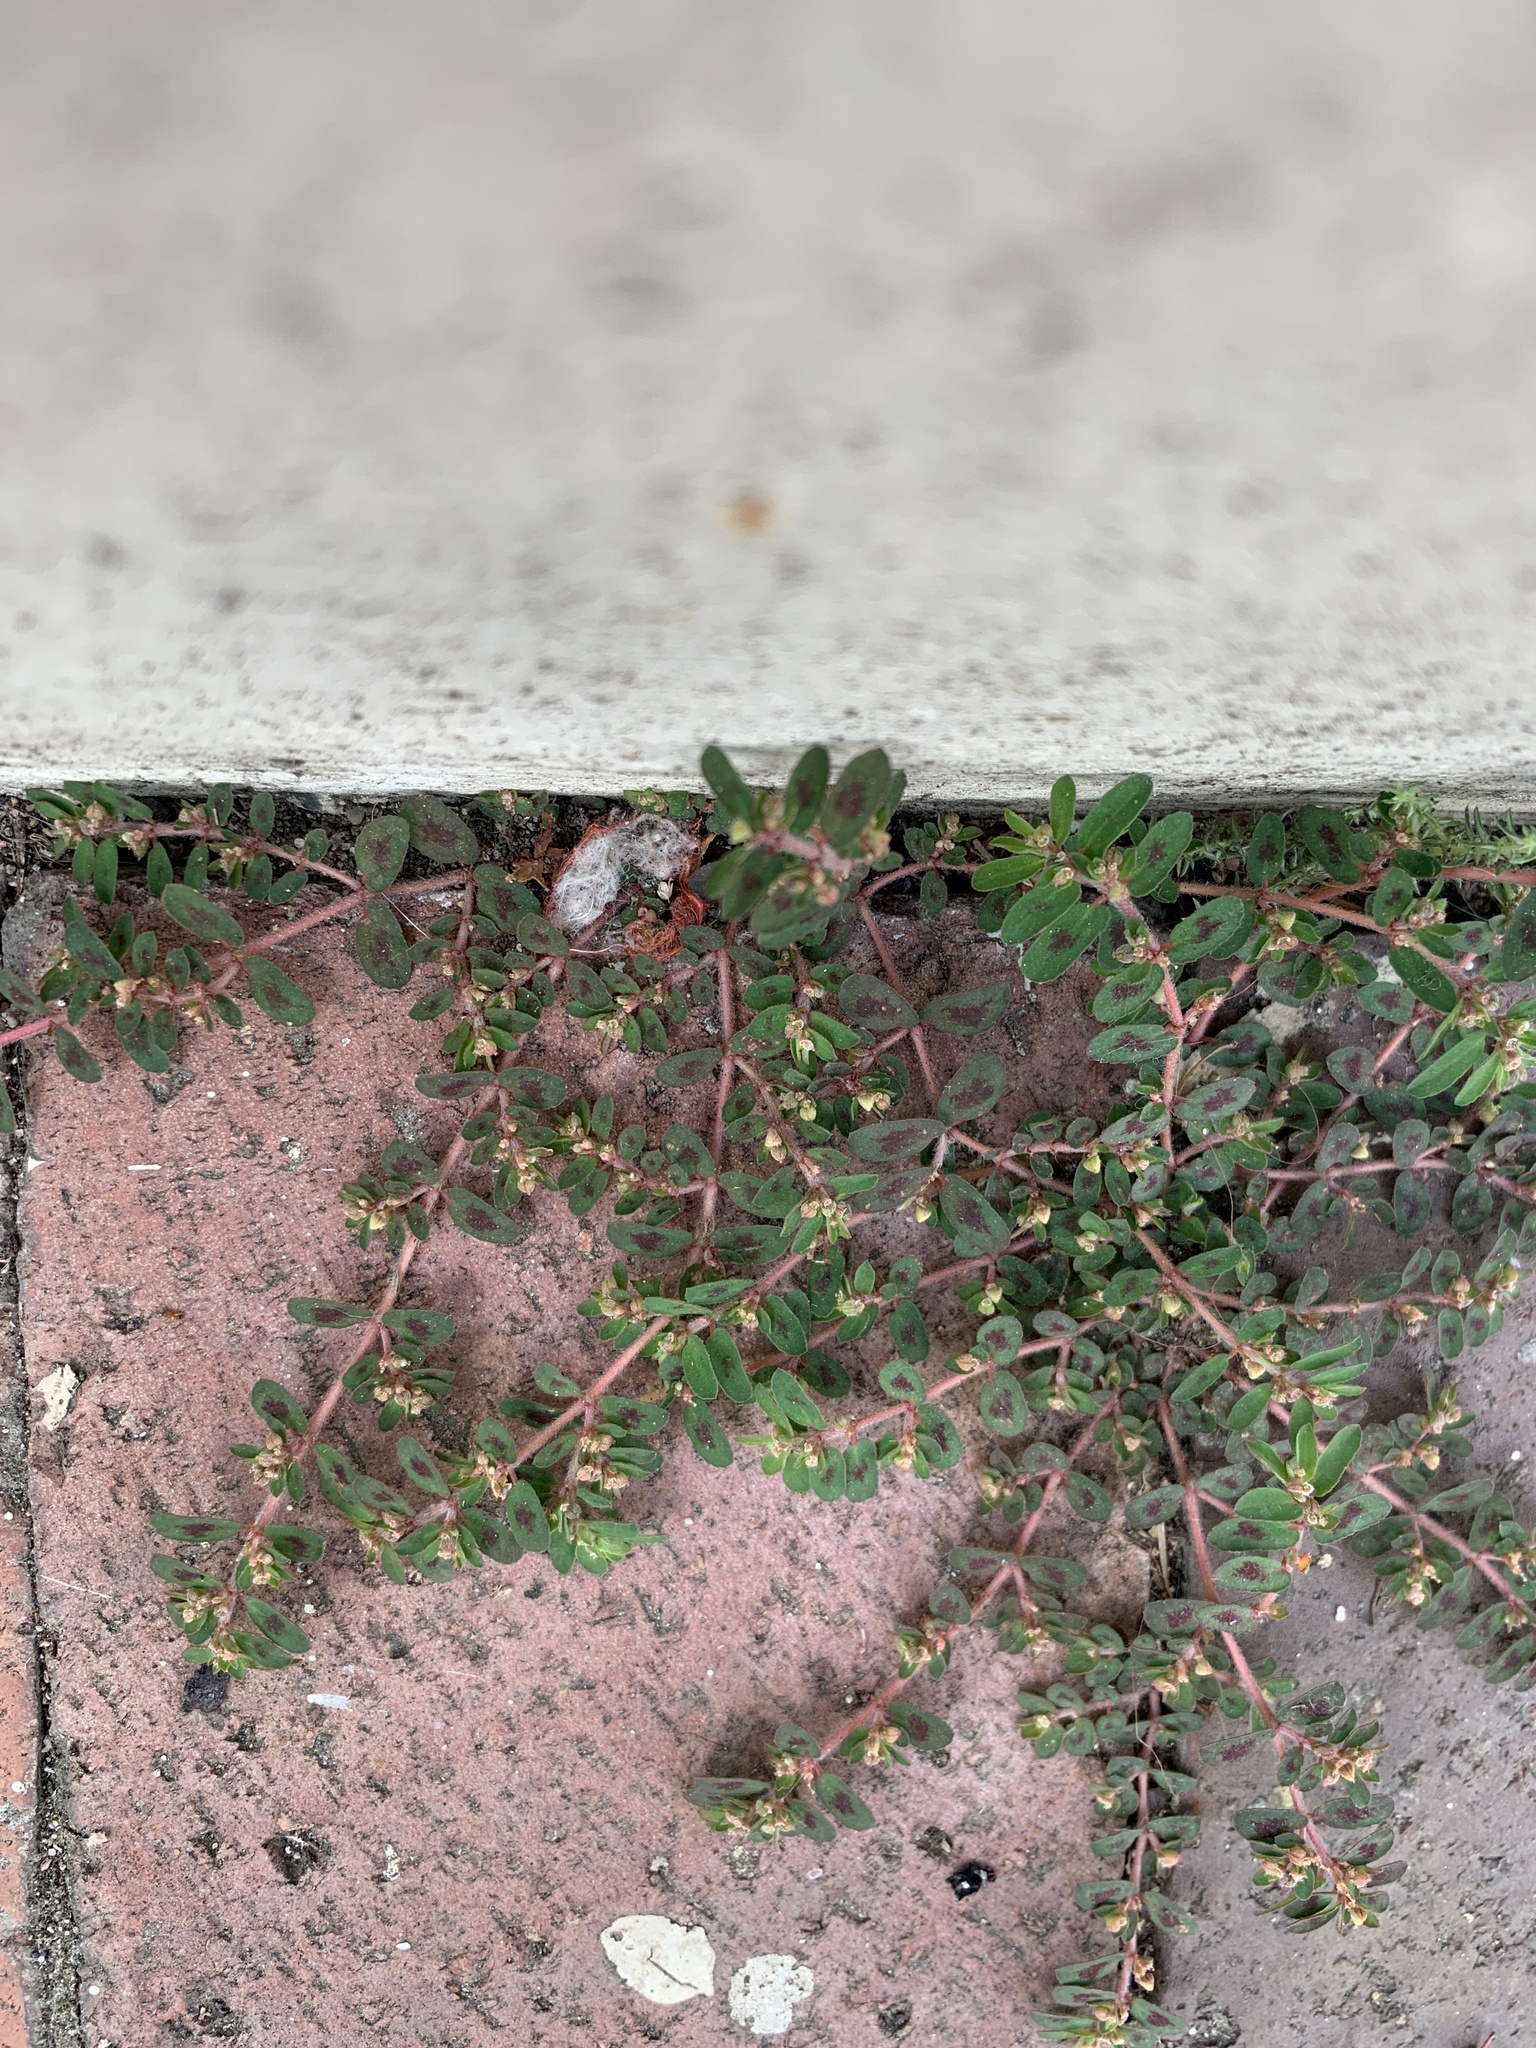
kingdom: Plantae
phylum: Tracheophyta
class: Magnoliopsida
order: Malpighiales
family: Euphorbiaceae
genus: Euphorbia
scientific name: Euphorbia maculata
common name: Spotted spurge
